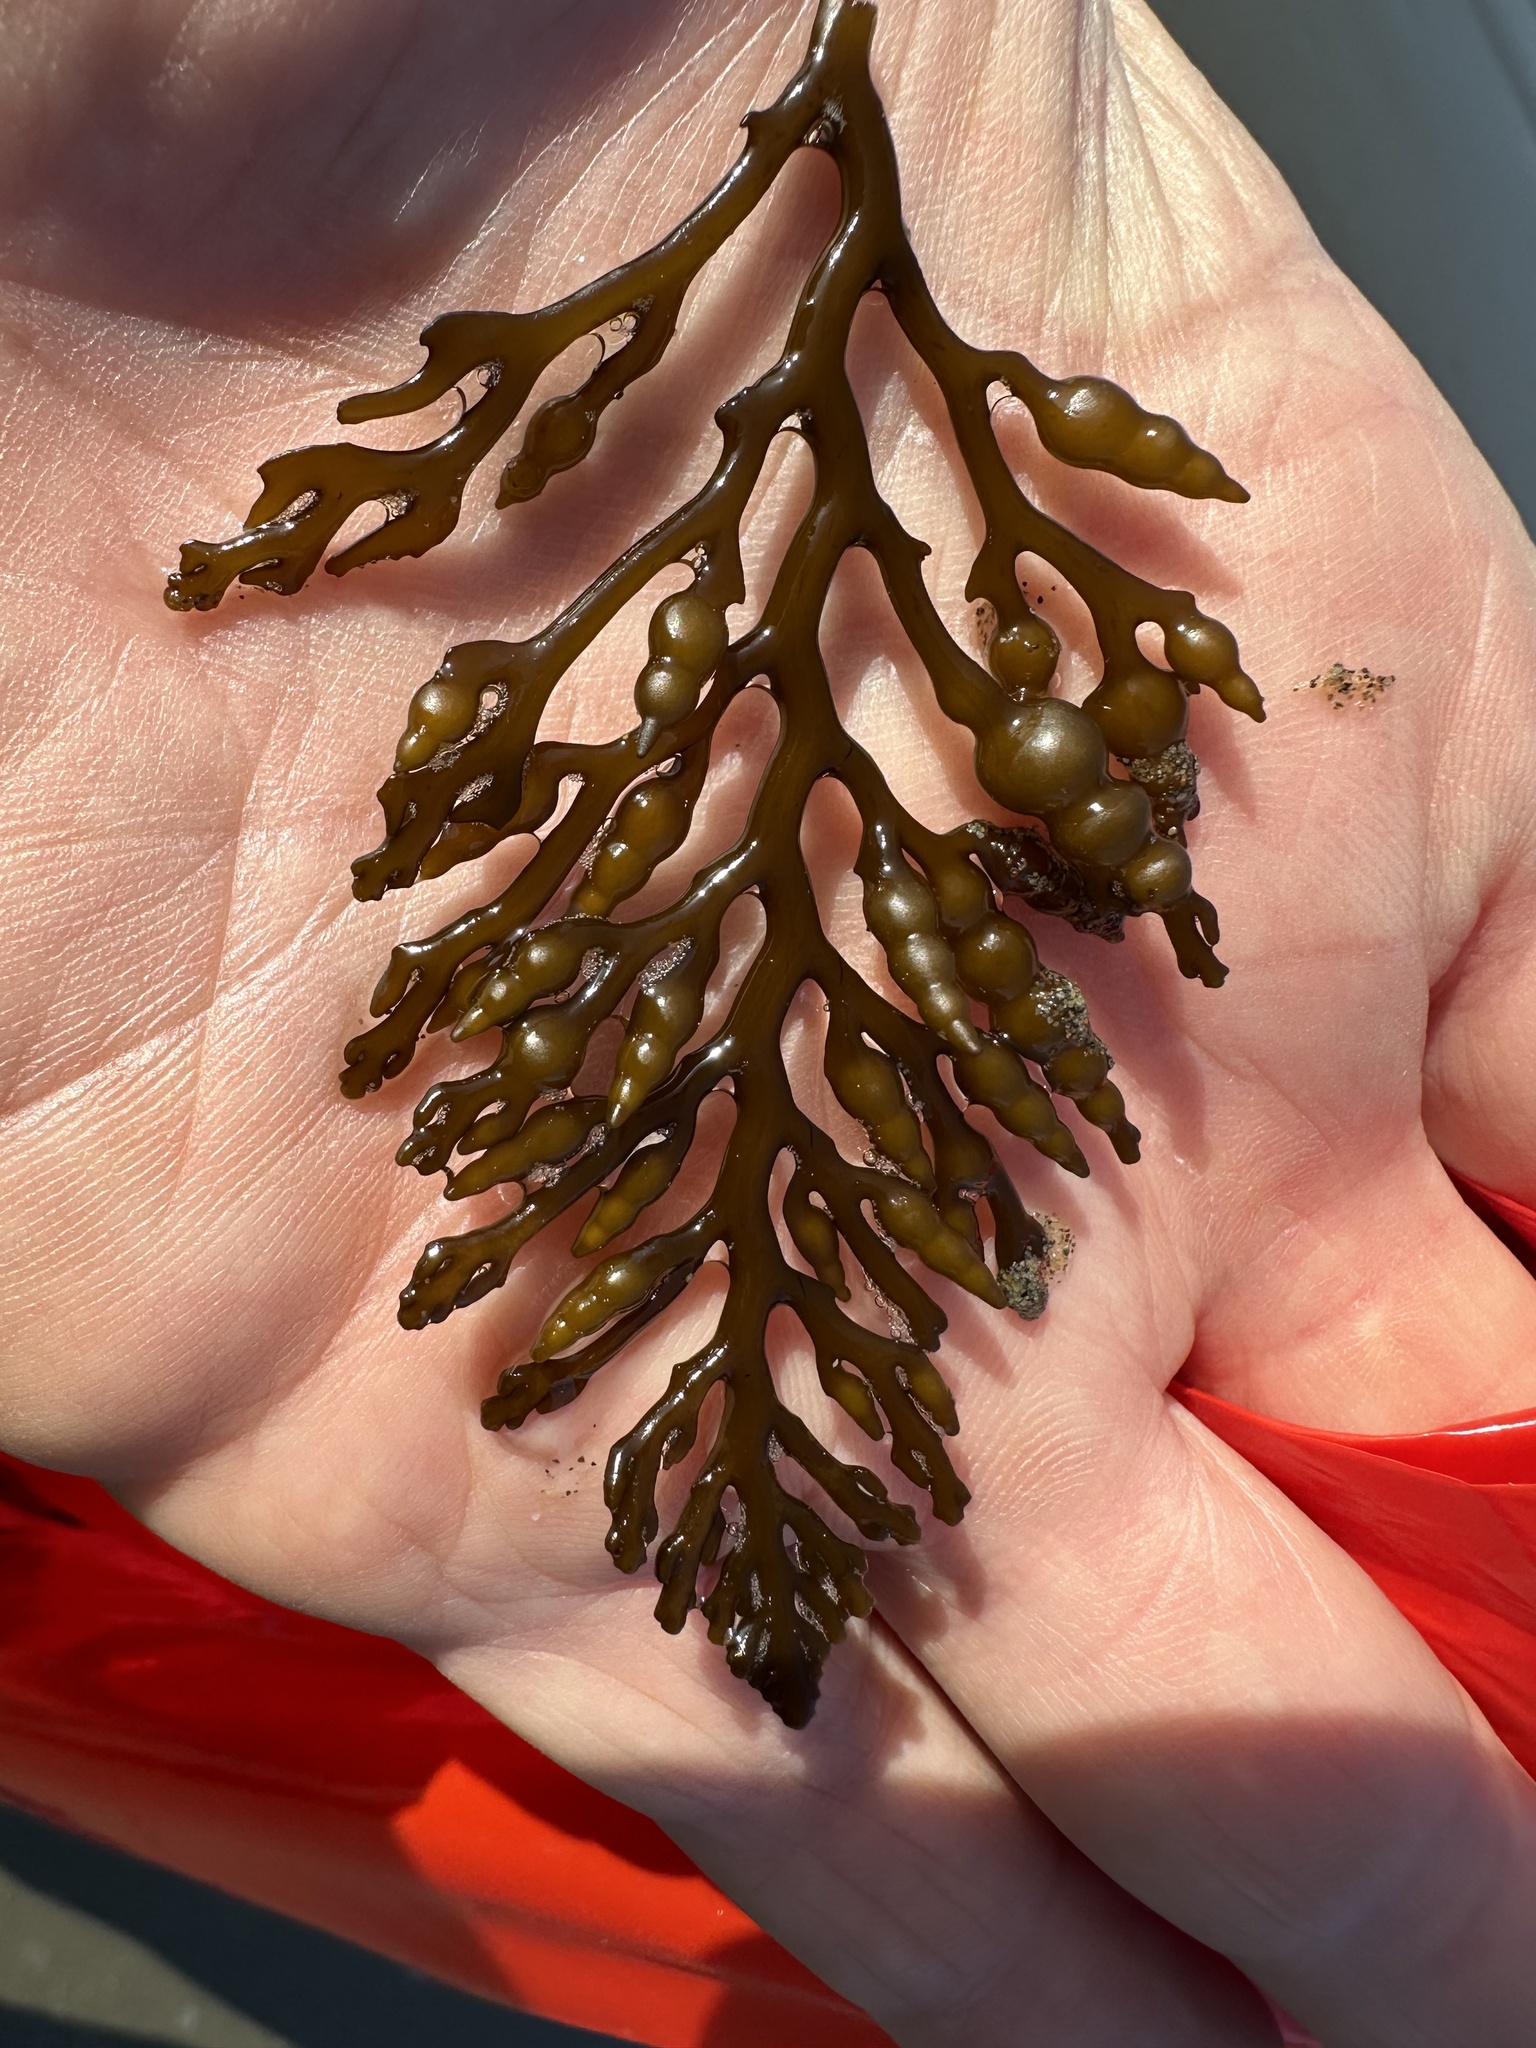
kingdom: Chromista
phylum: Ochrophyta
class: Phaeophyceae
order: Fucales
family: Sargassaceae
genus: Stephanocystis
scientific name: Stephanocystis
